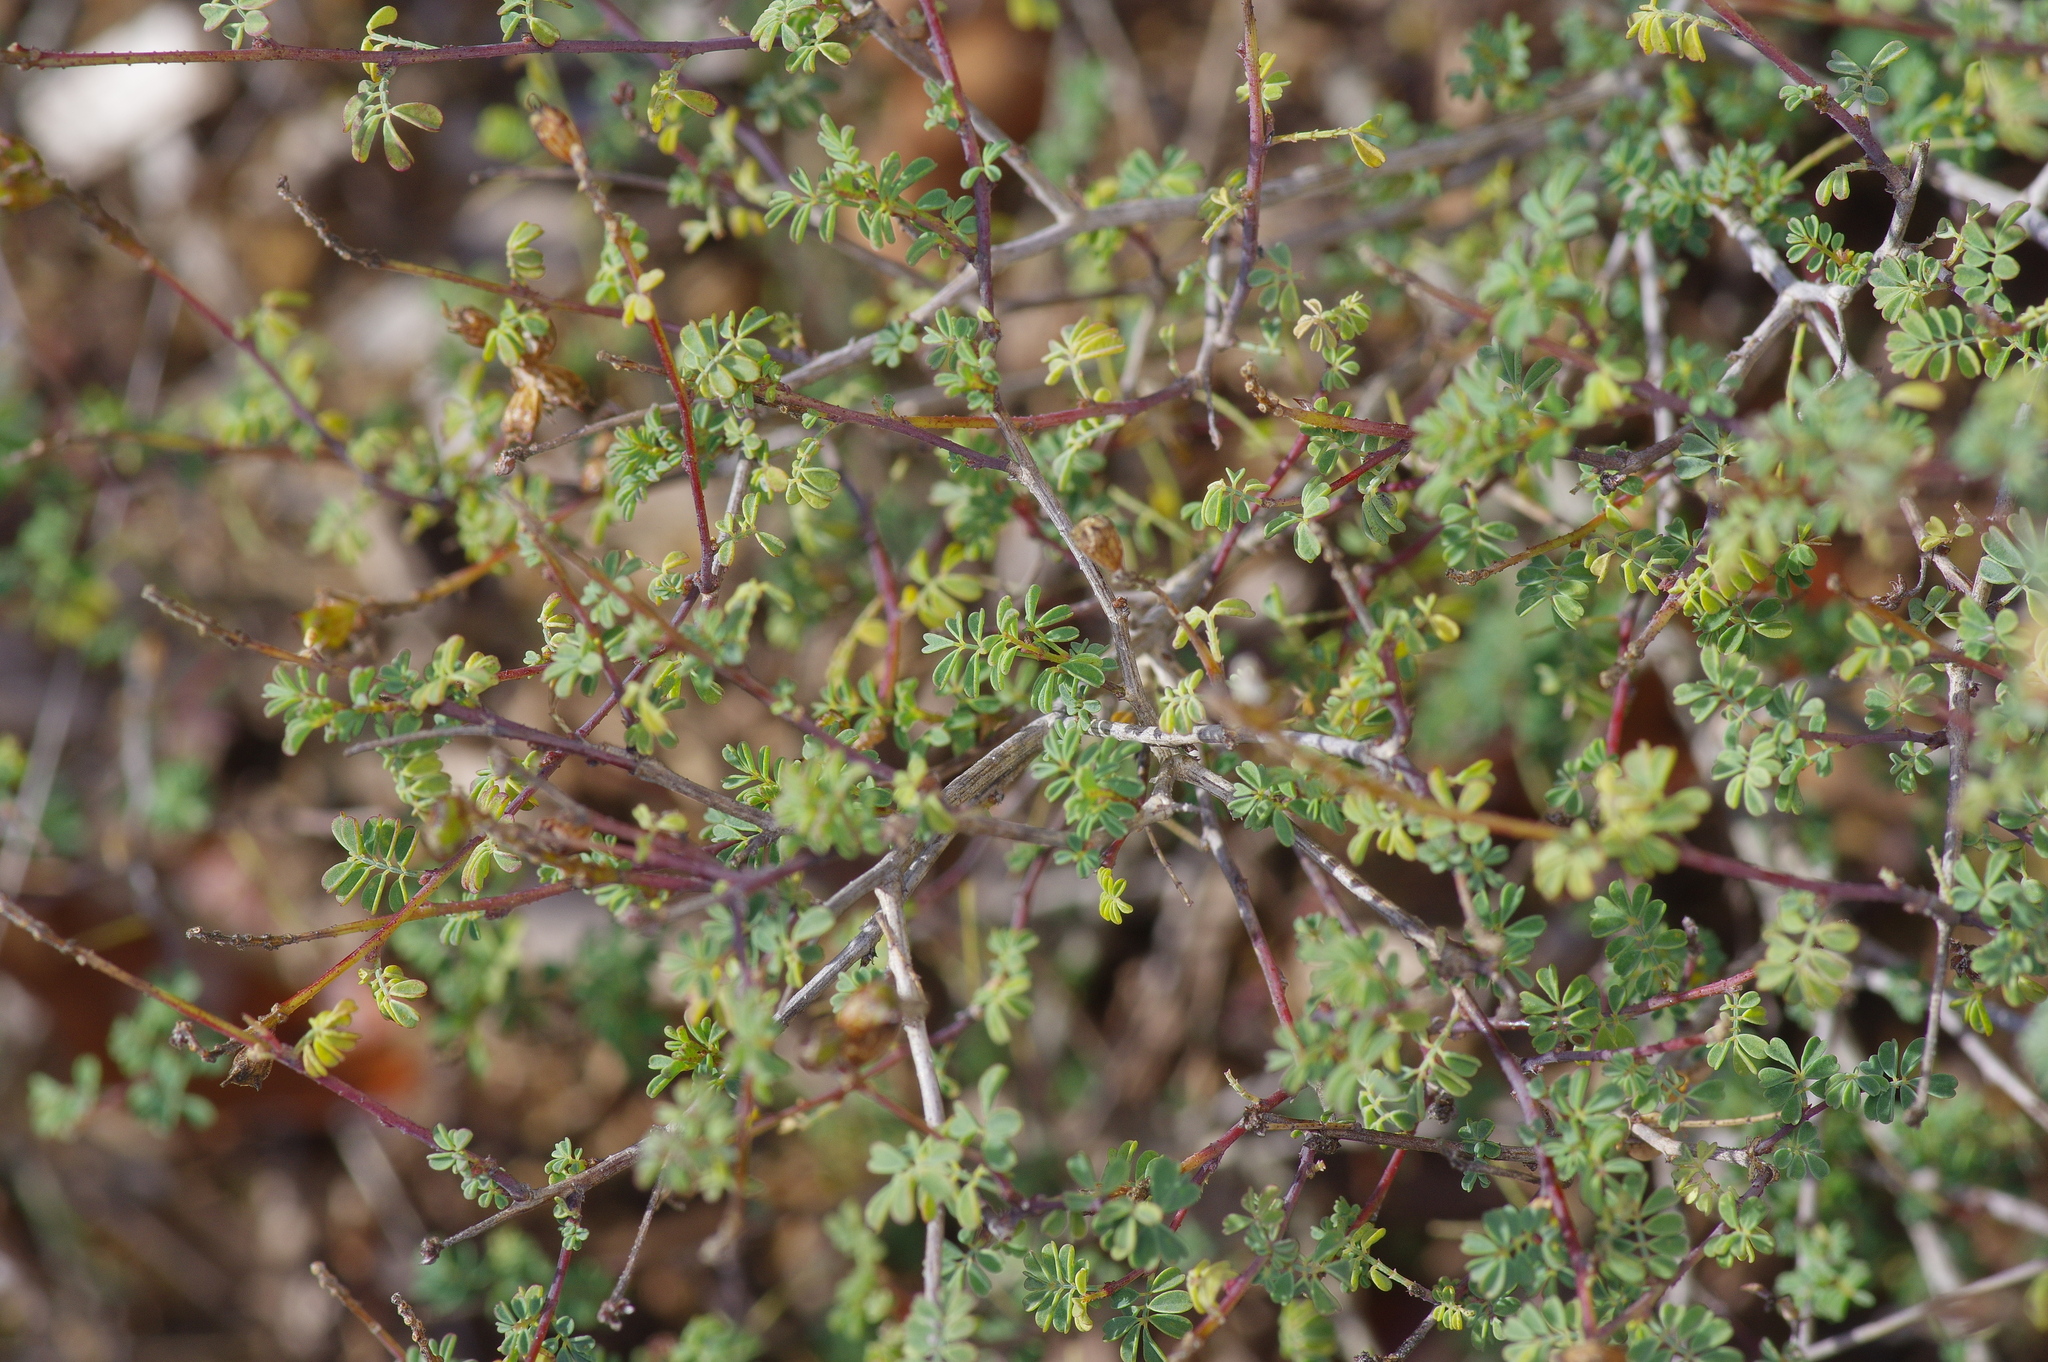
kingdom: Plantae
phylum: Tracheophyta
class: Magnoliopsida
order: Fabales
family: Fabaceae
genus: Dalea
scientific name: Dalea frutescens
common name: Black dalea
